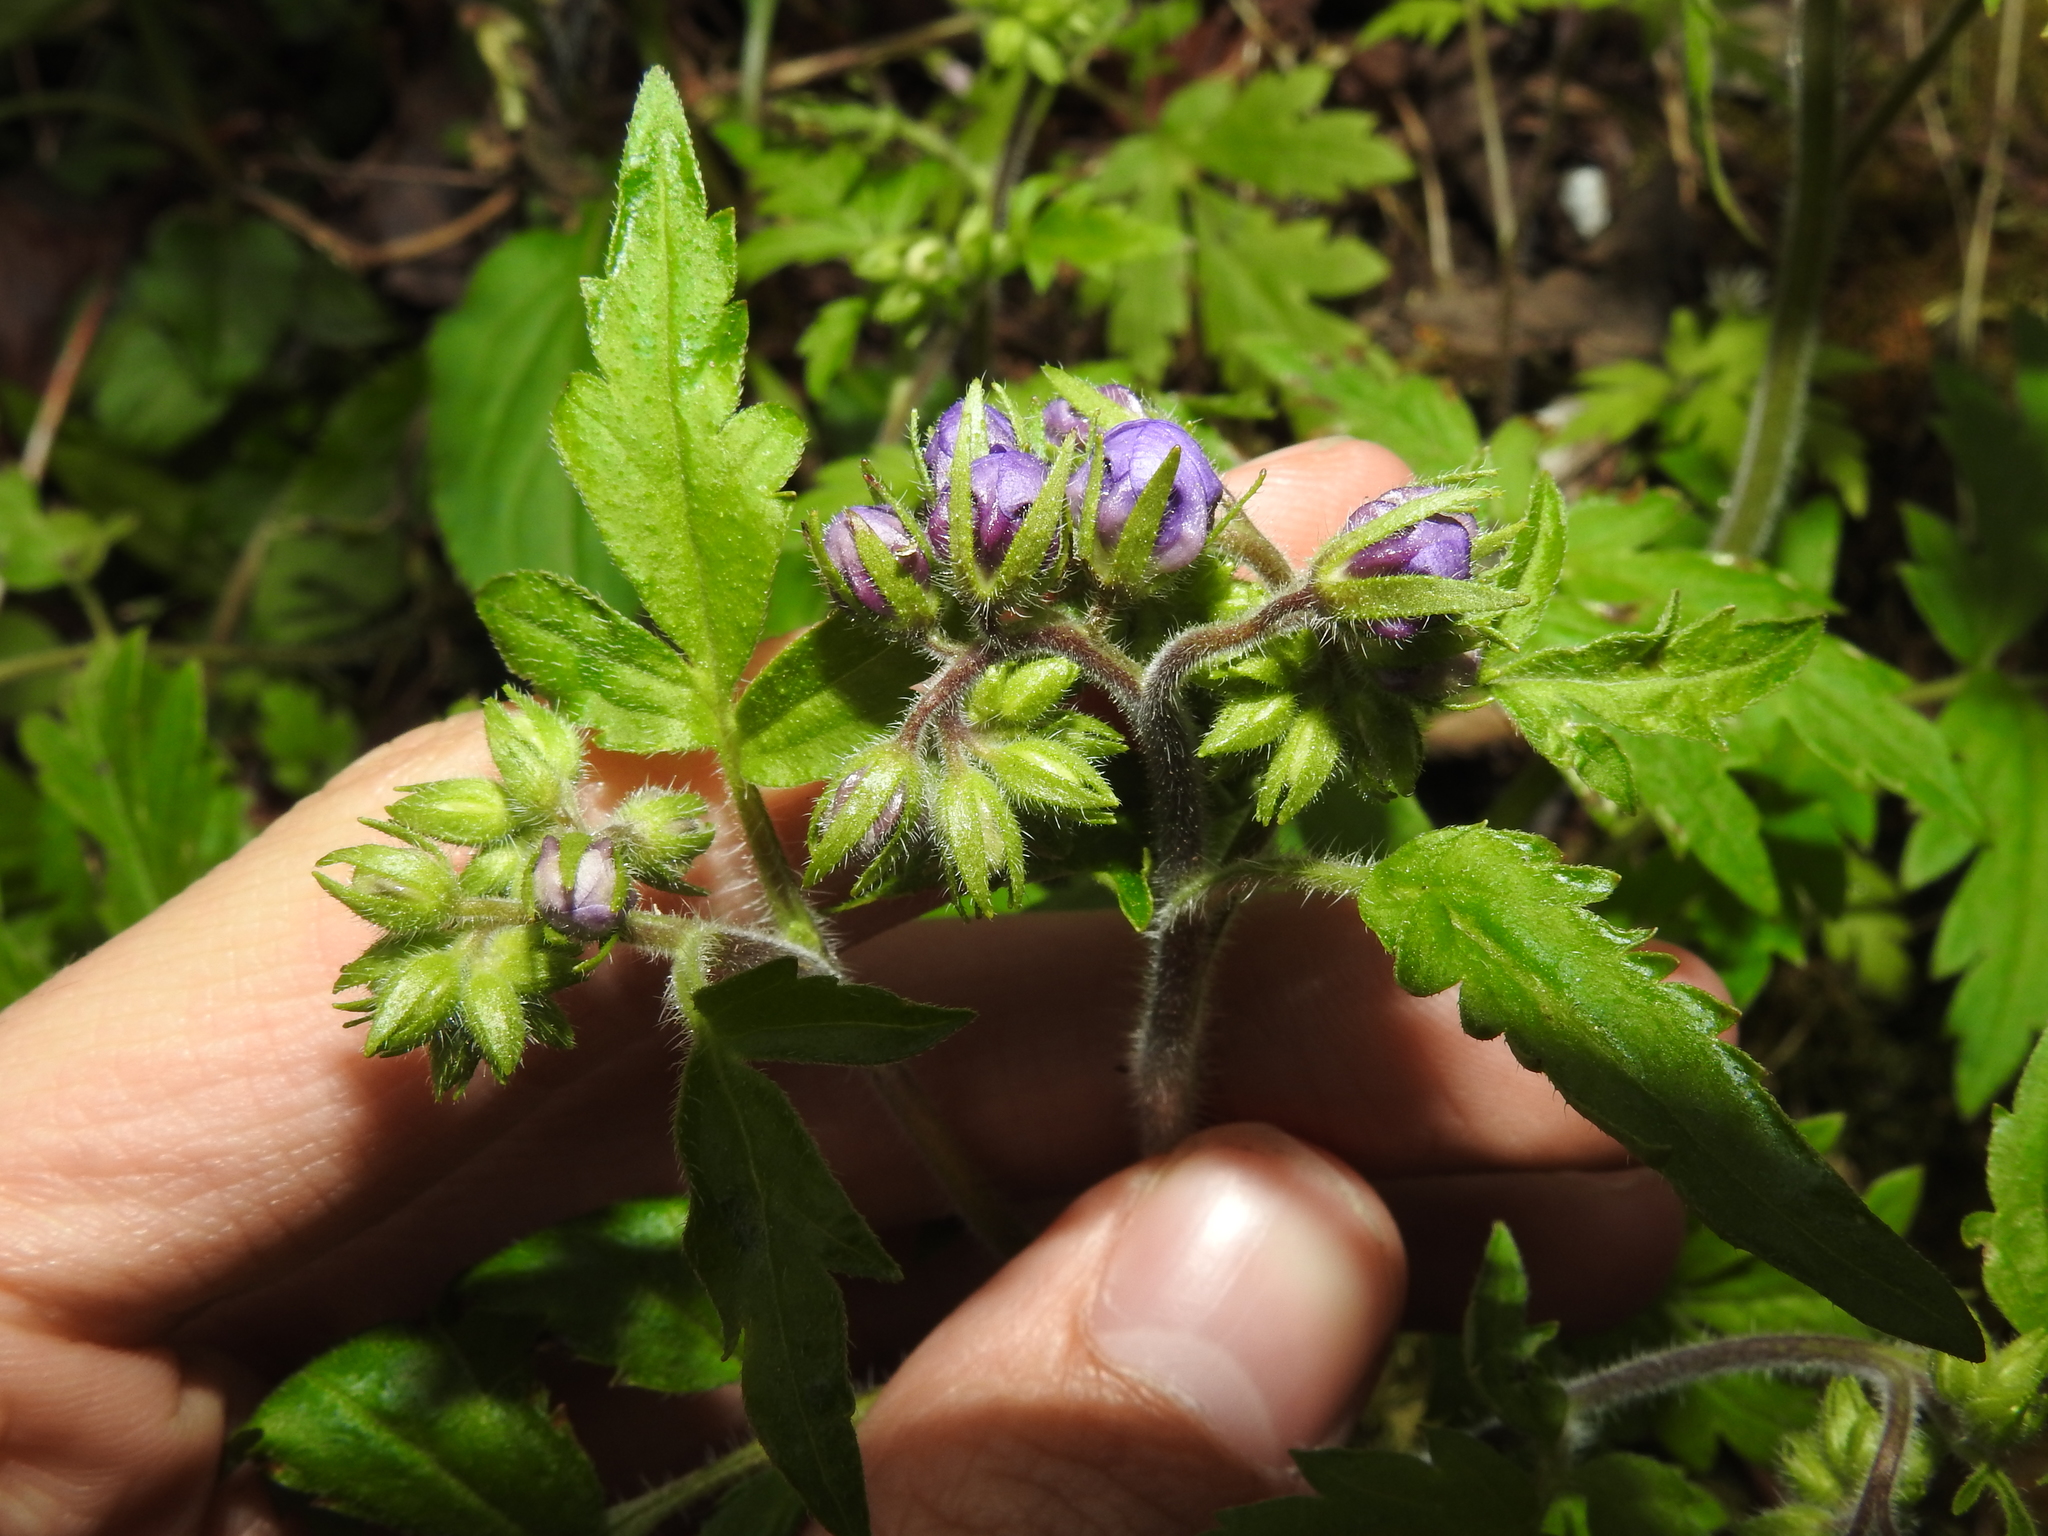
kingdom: Plantae
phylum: Tracheophyta
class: Magnoliopsida
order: Boraginales
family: Hydrophyllaceae
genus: Phacelia
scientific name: Phacelia bipinnatifida
